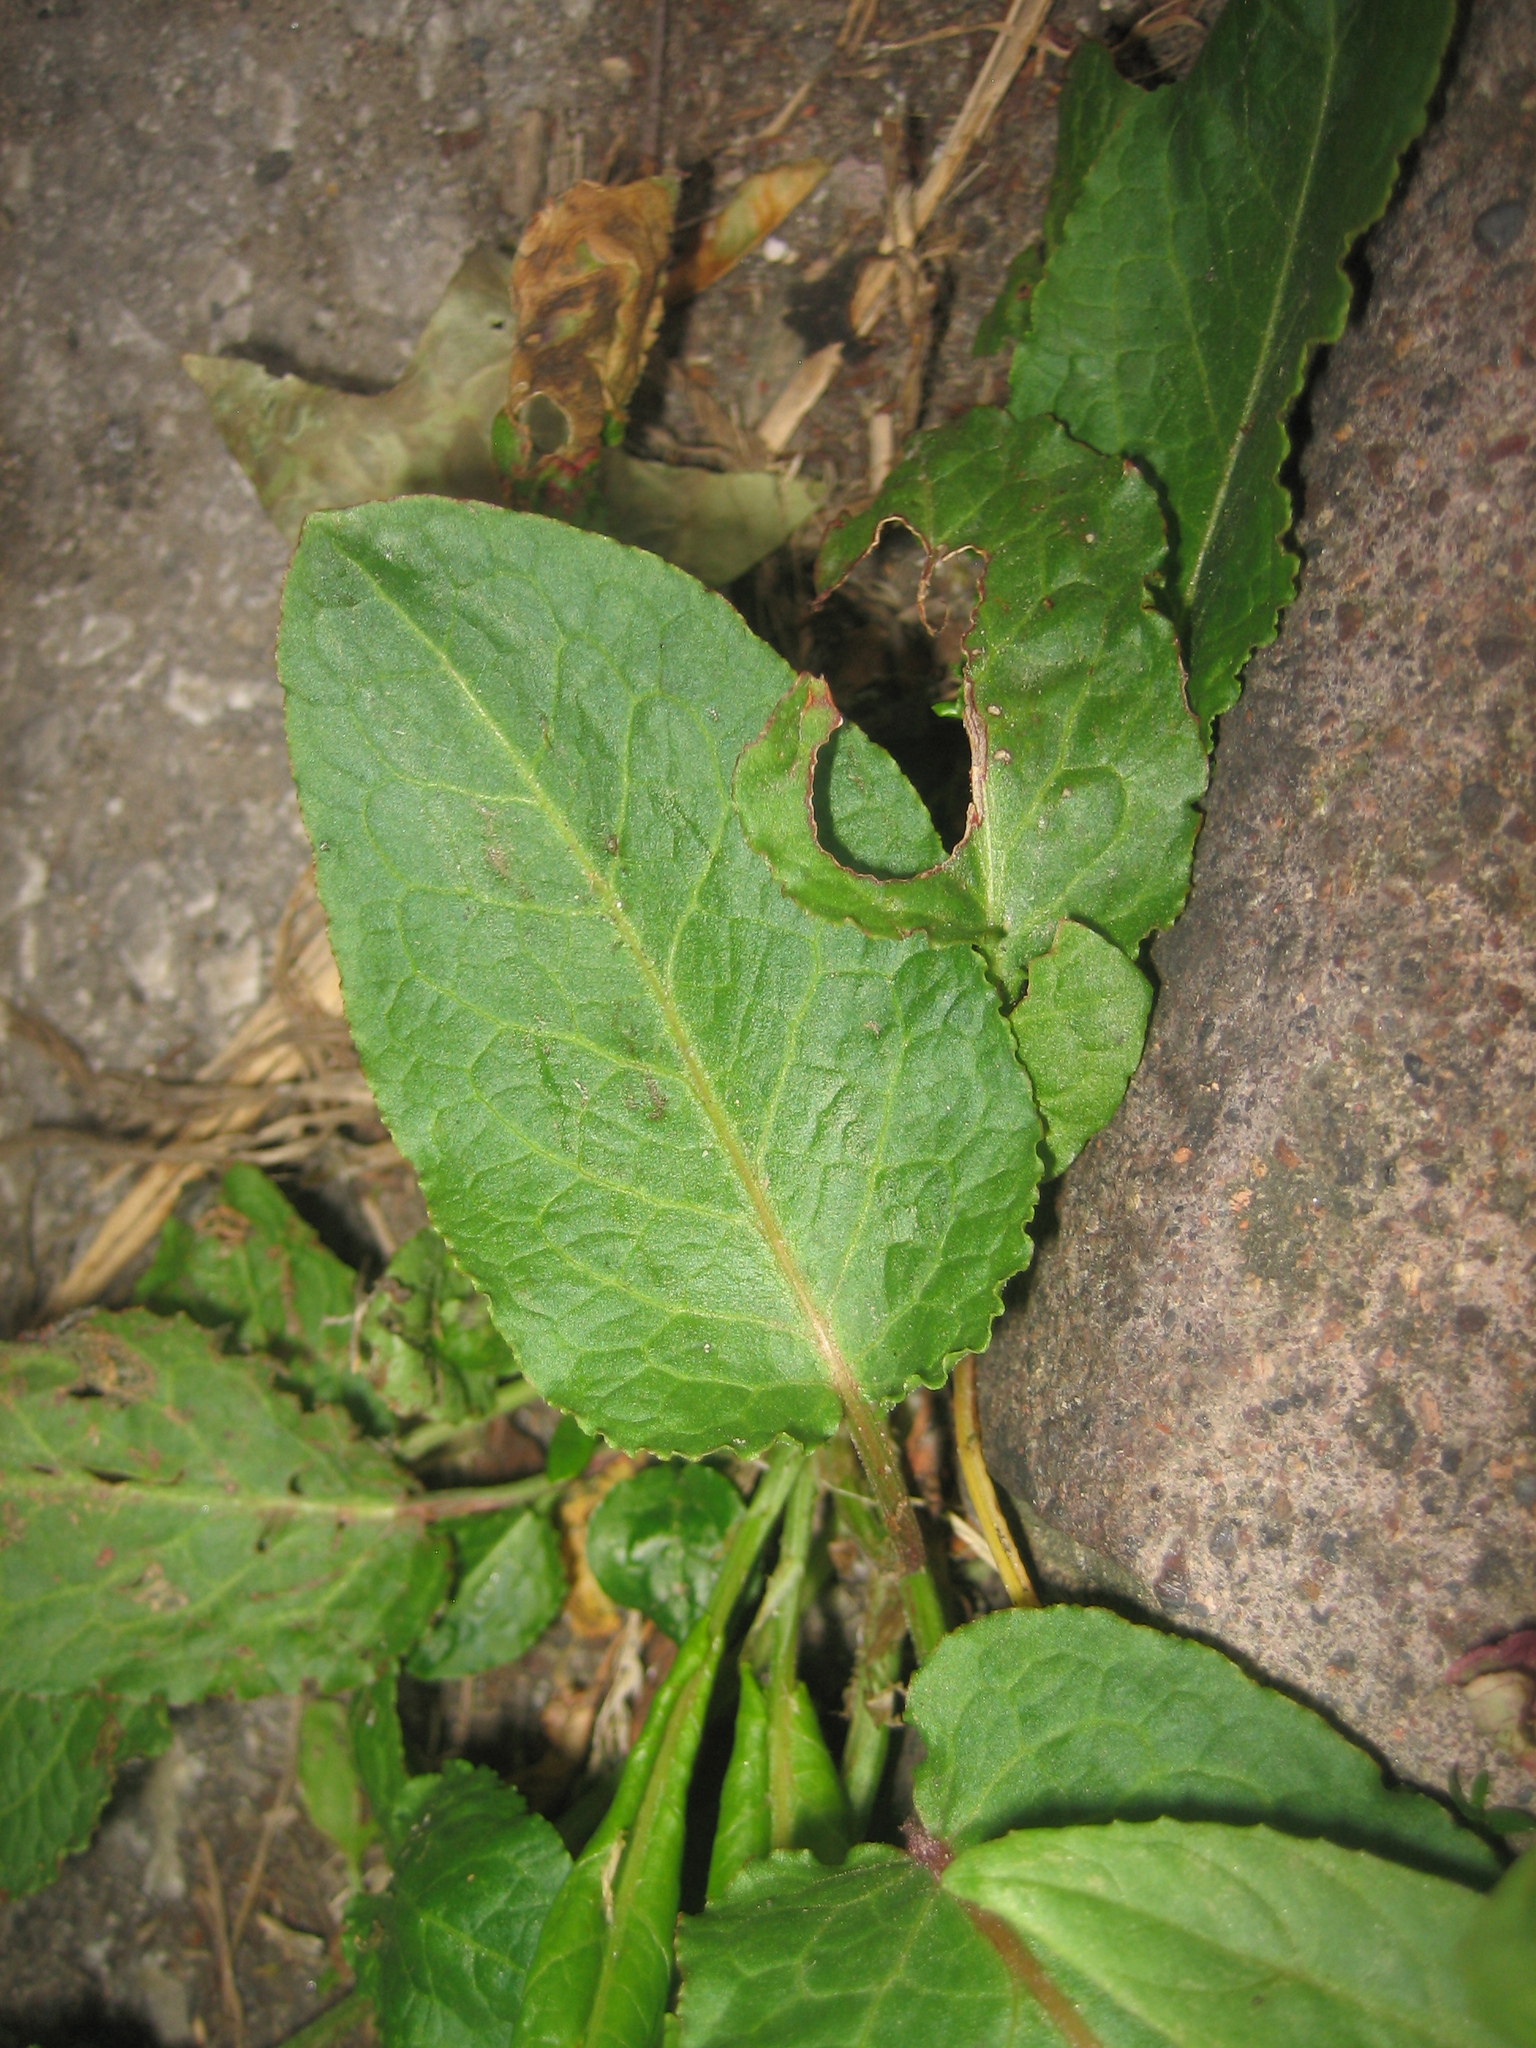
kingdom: Plantae
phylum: Tracheophyta
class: Magnoliopsida
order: Caryophyllales
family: Polygonaceae
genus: Rumex
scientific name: Rumex obtusifolius
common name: Bitter dock
